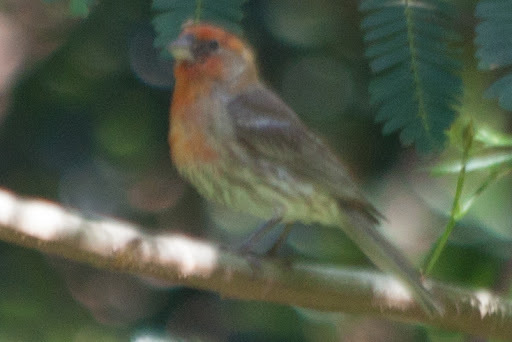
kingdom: Animalia
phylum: Chordata
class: Aves
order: Passeriformes
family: Fringillidae
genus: Haemorhous
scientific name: Haemorhous mexicanus
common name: House finch
